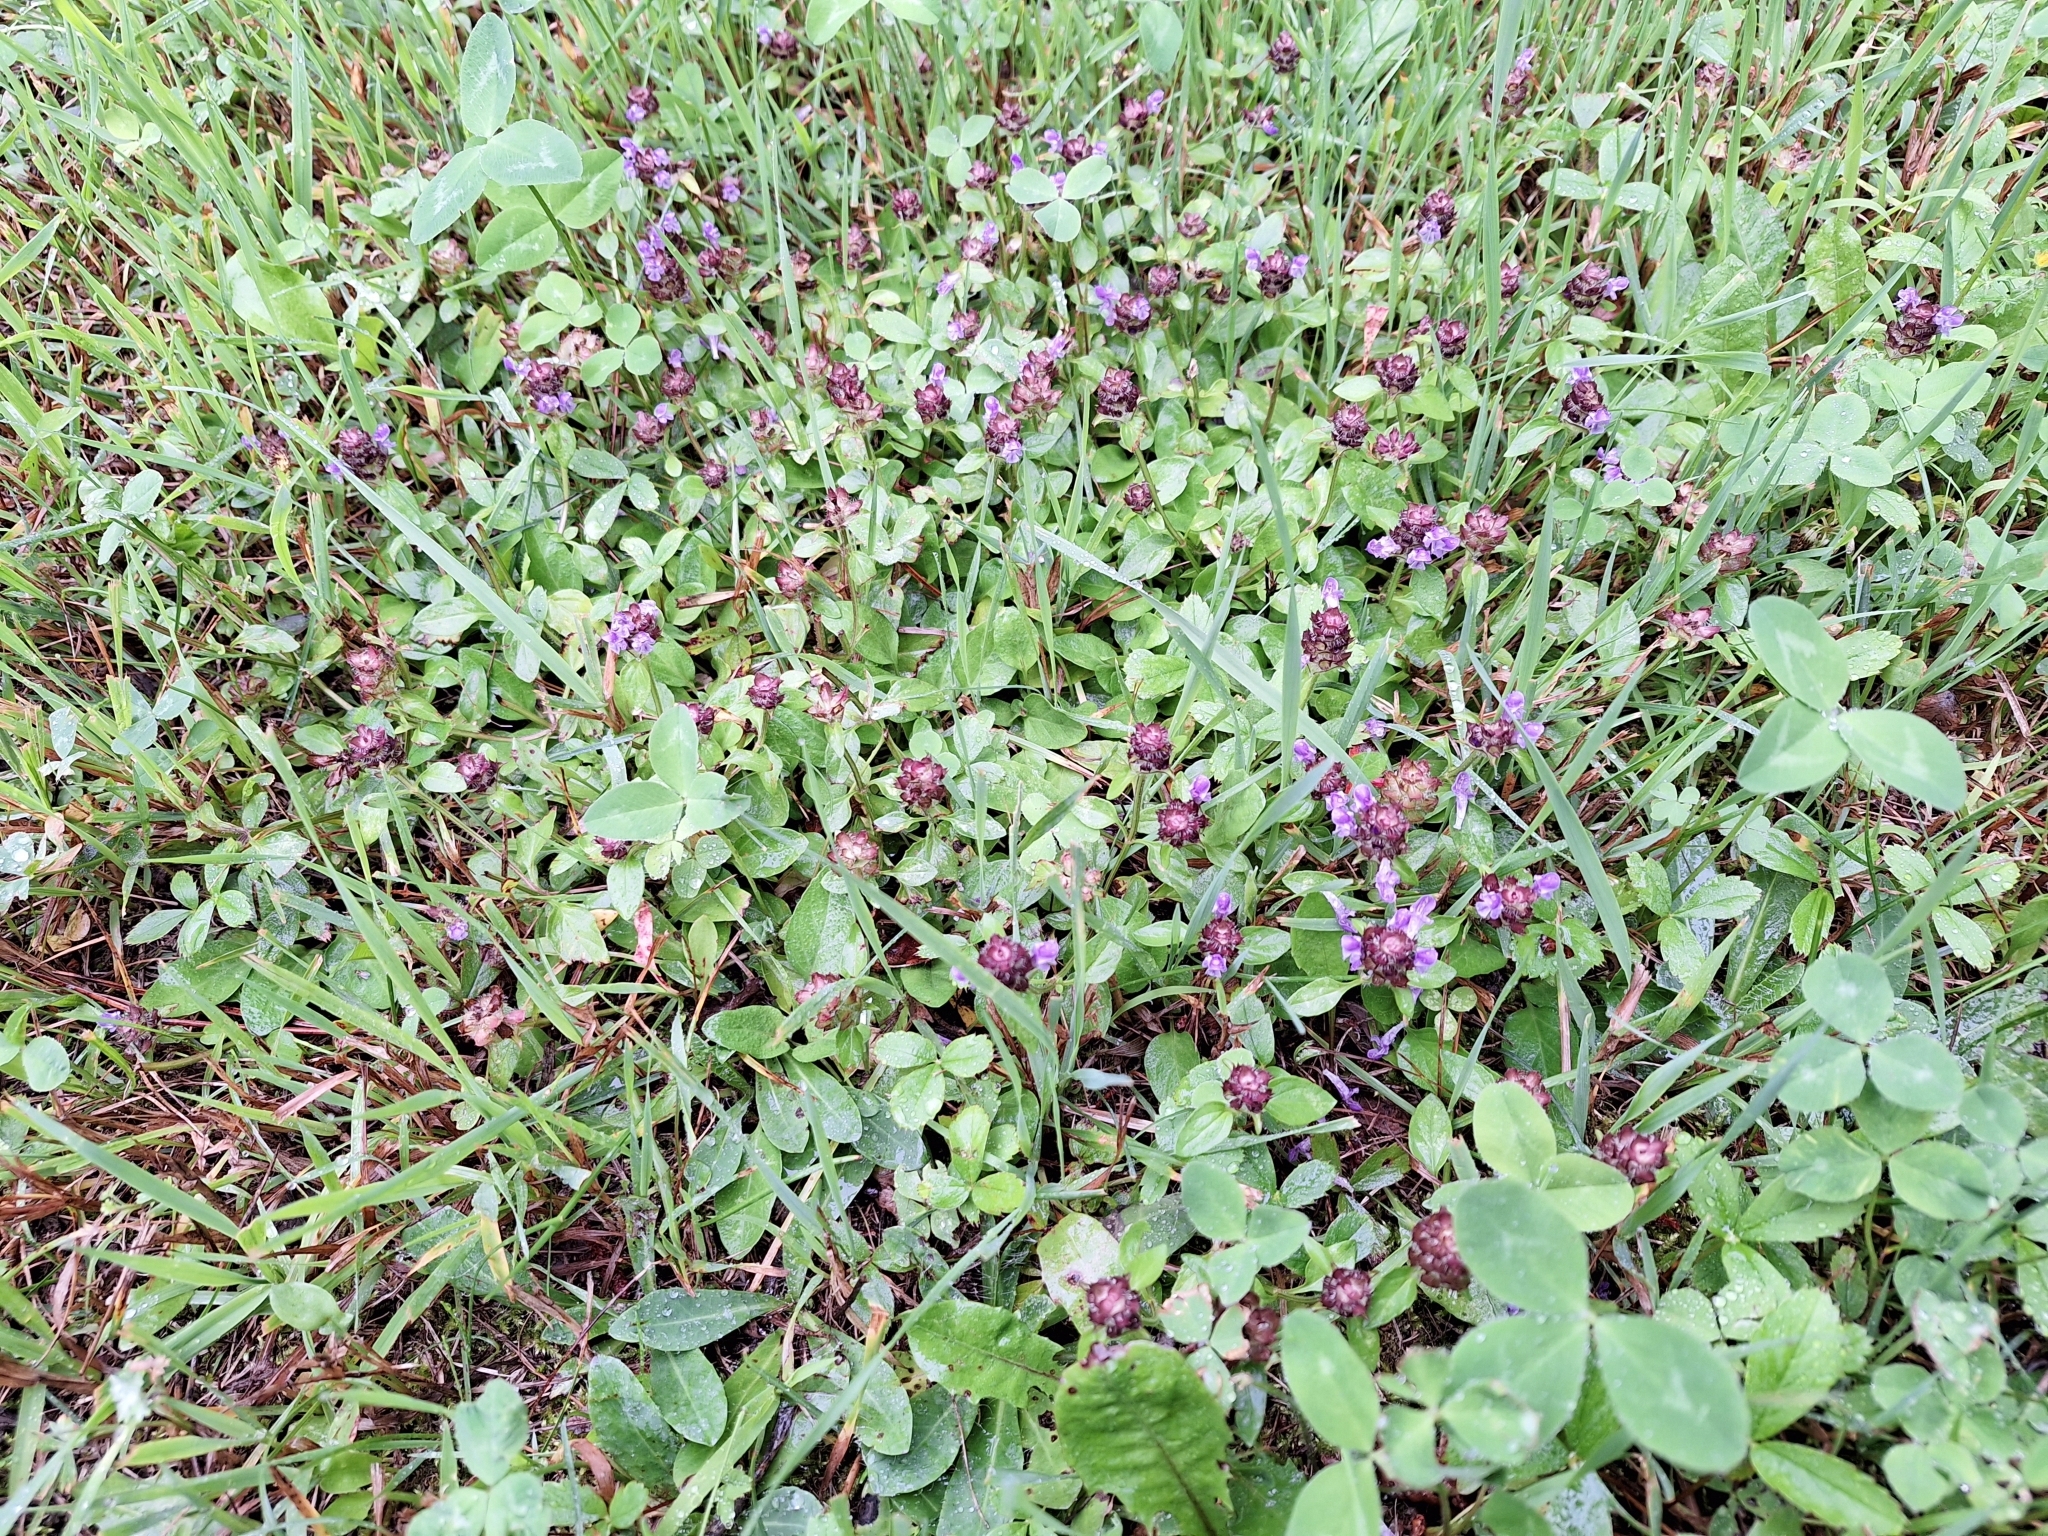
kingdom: Plantae
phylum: Tracheophyta
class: Magnoliopsida
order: Lamiales
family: Lamiaceae
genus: Prunella
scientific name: Prunella vulgaris
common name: Heal-all
